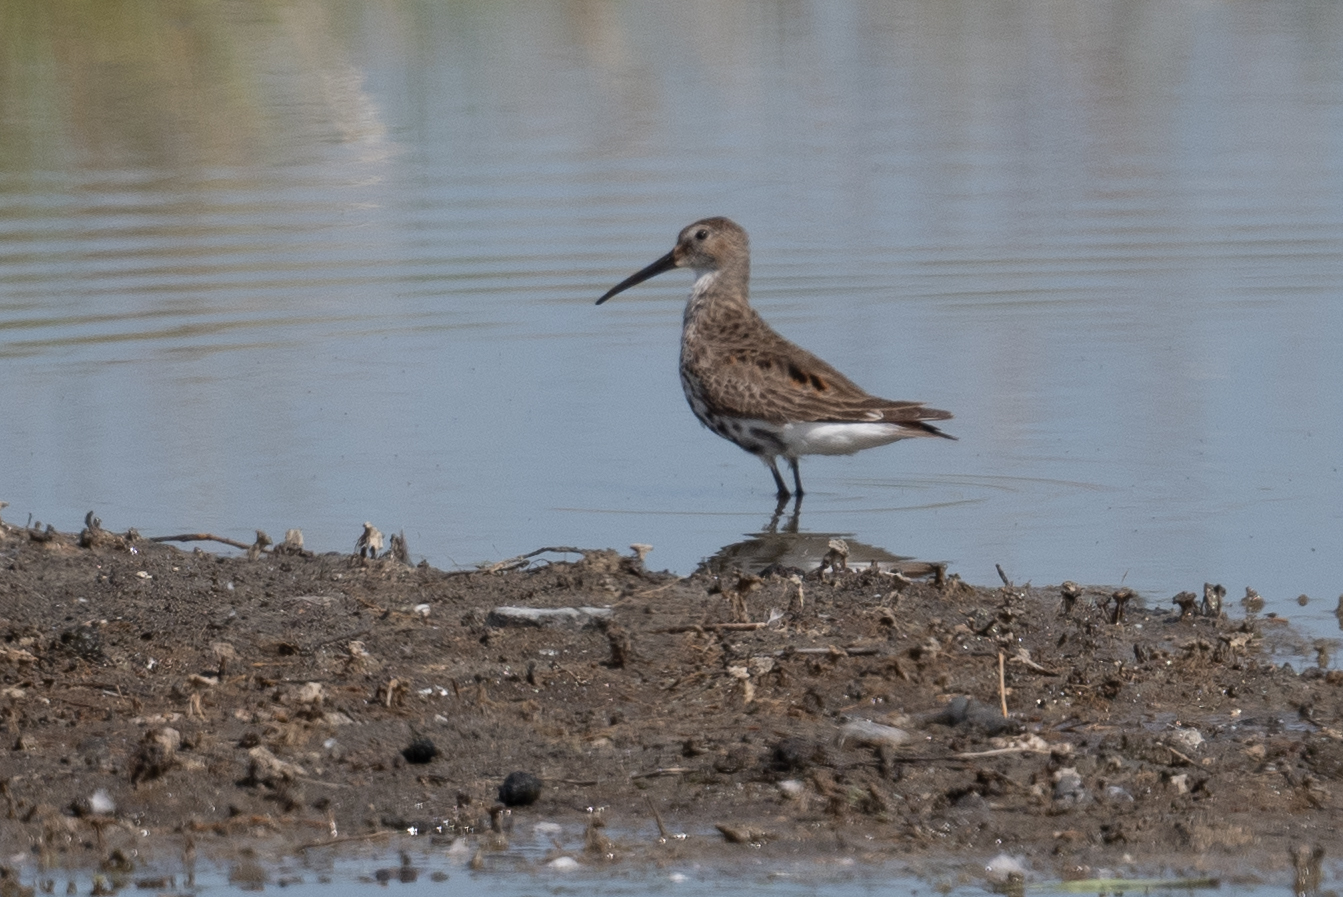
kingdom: Animalia
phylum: Chordata
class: Aves
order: Charadriiformes
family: Scolopacidae
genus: Calidris
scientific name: Calidris alpina
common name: Dunlin
